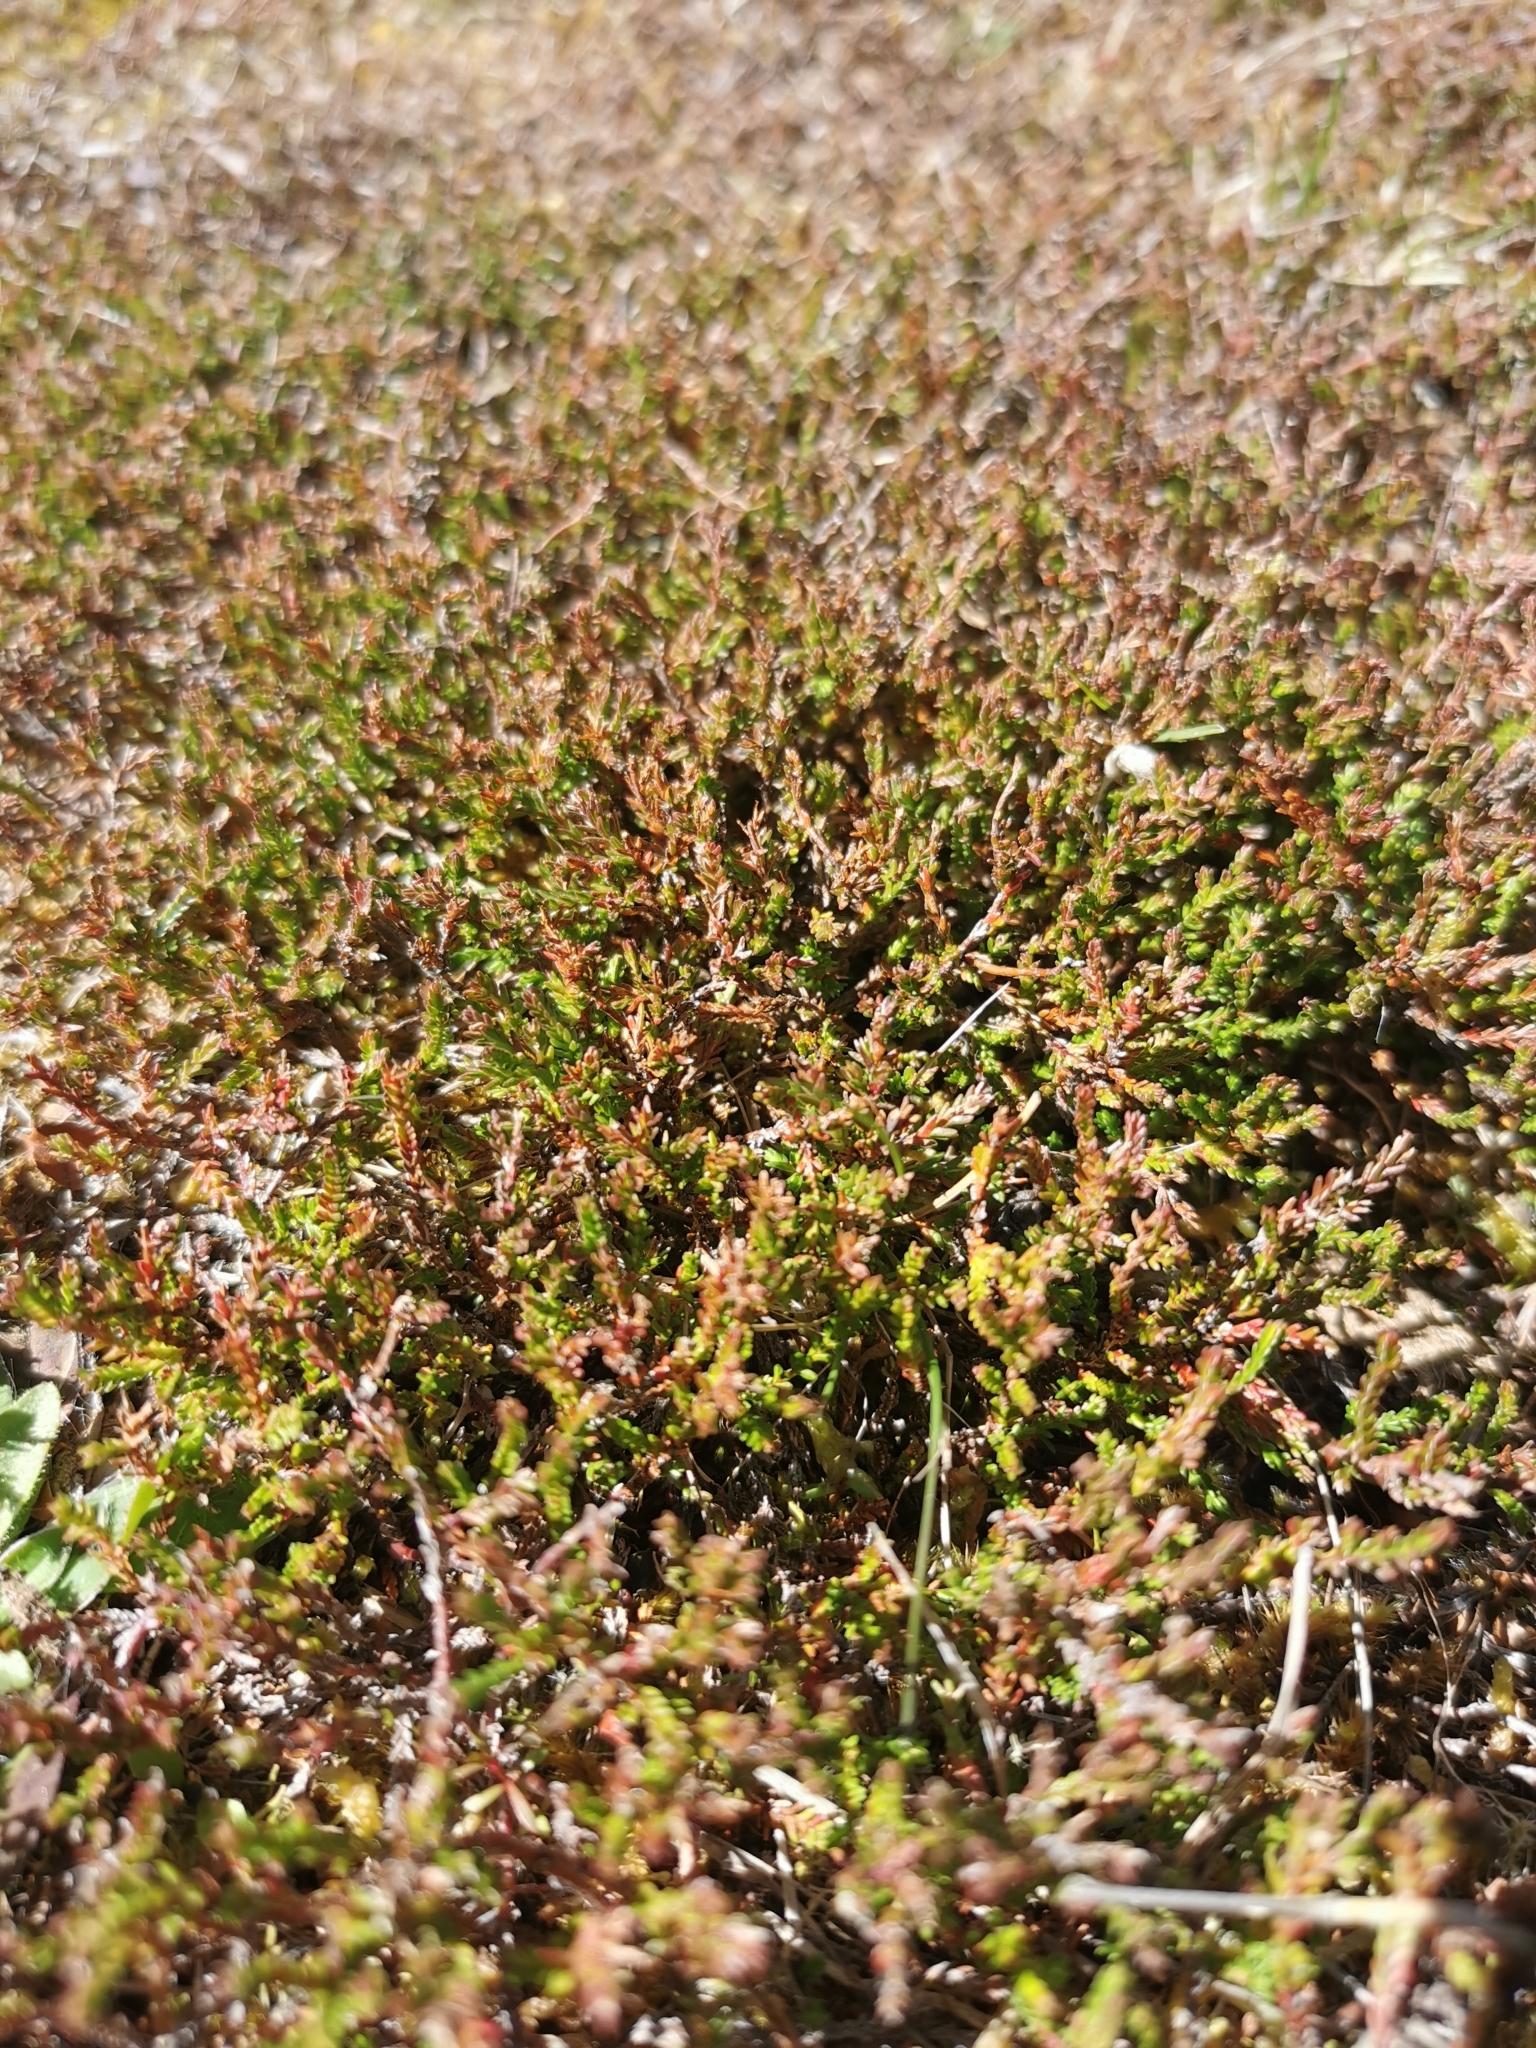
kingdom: Plantae
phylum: Tracheophyta
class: Magnoliopsida
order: Ericales
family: Ericaceae
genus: Calluna
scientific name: Calluna vulgaris
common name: Heather
